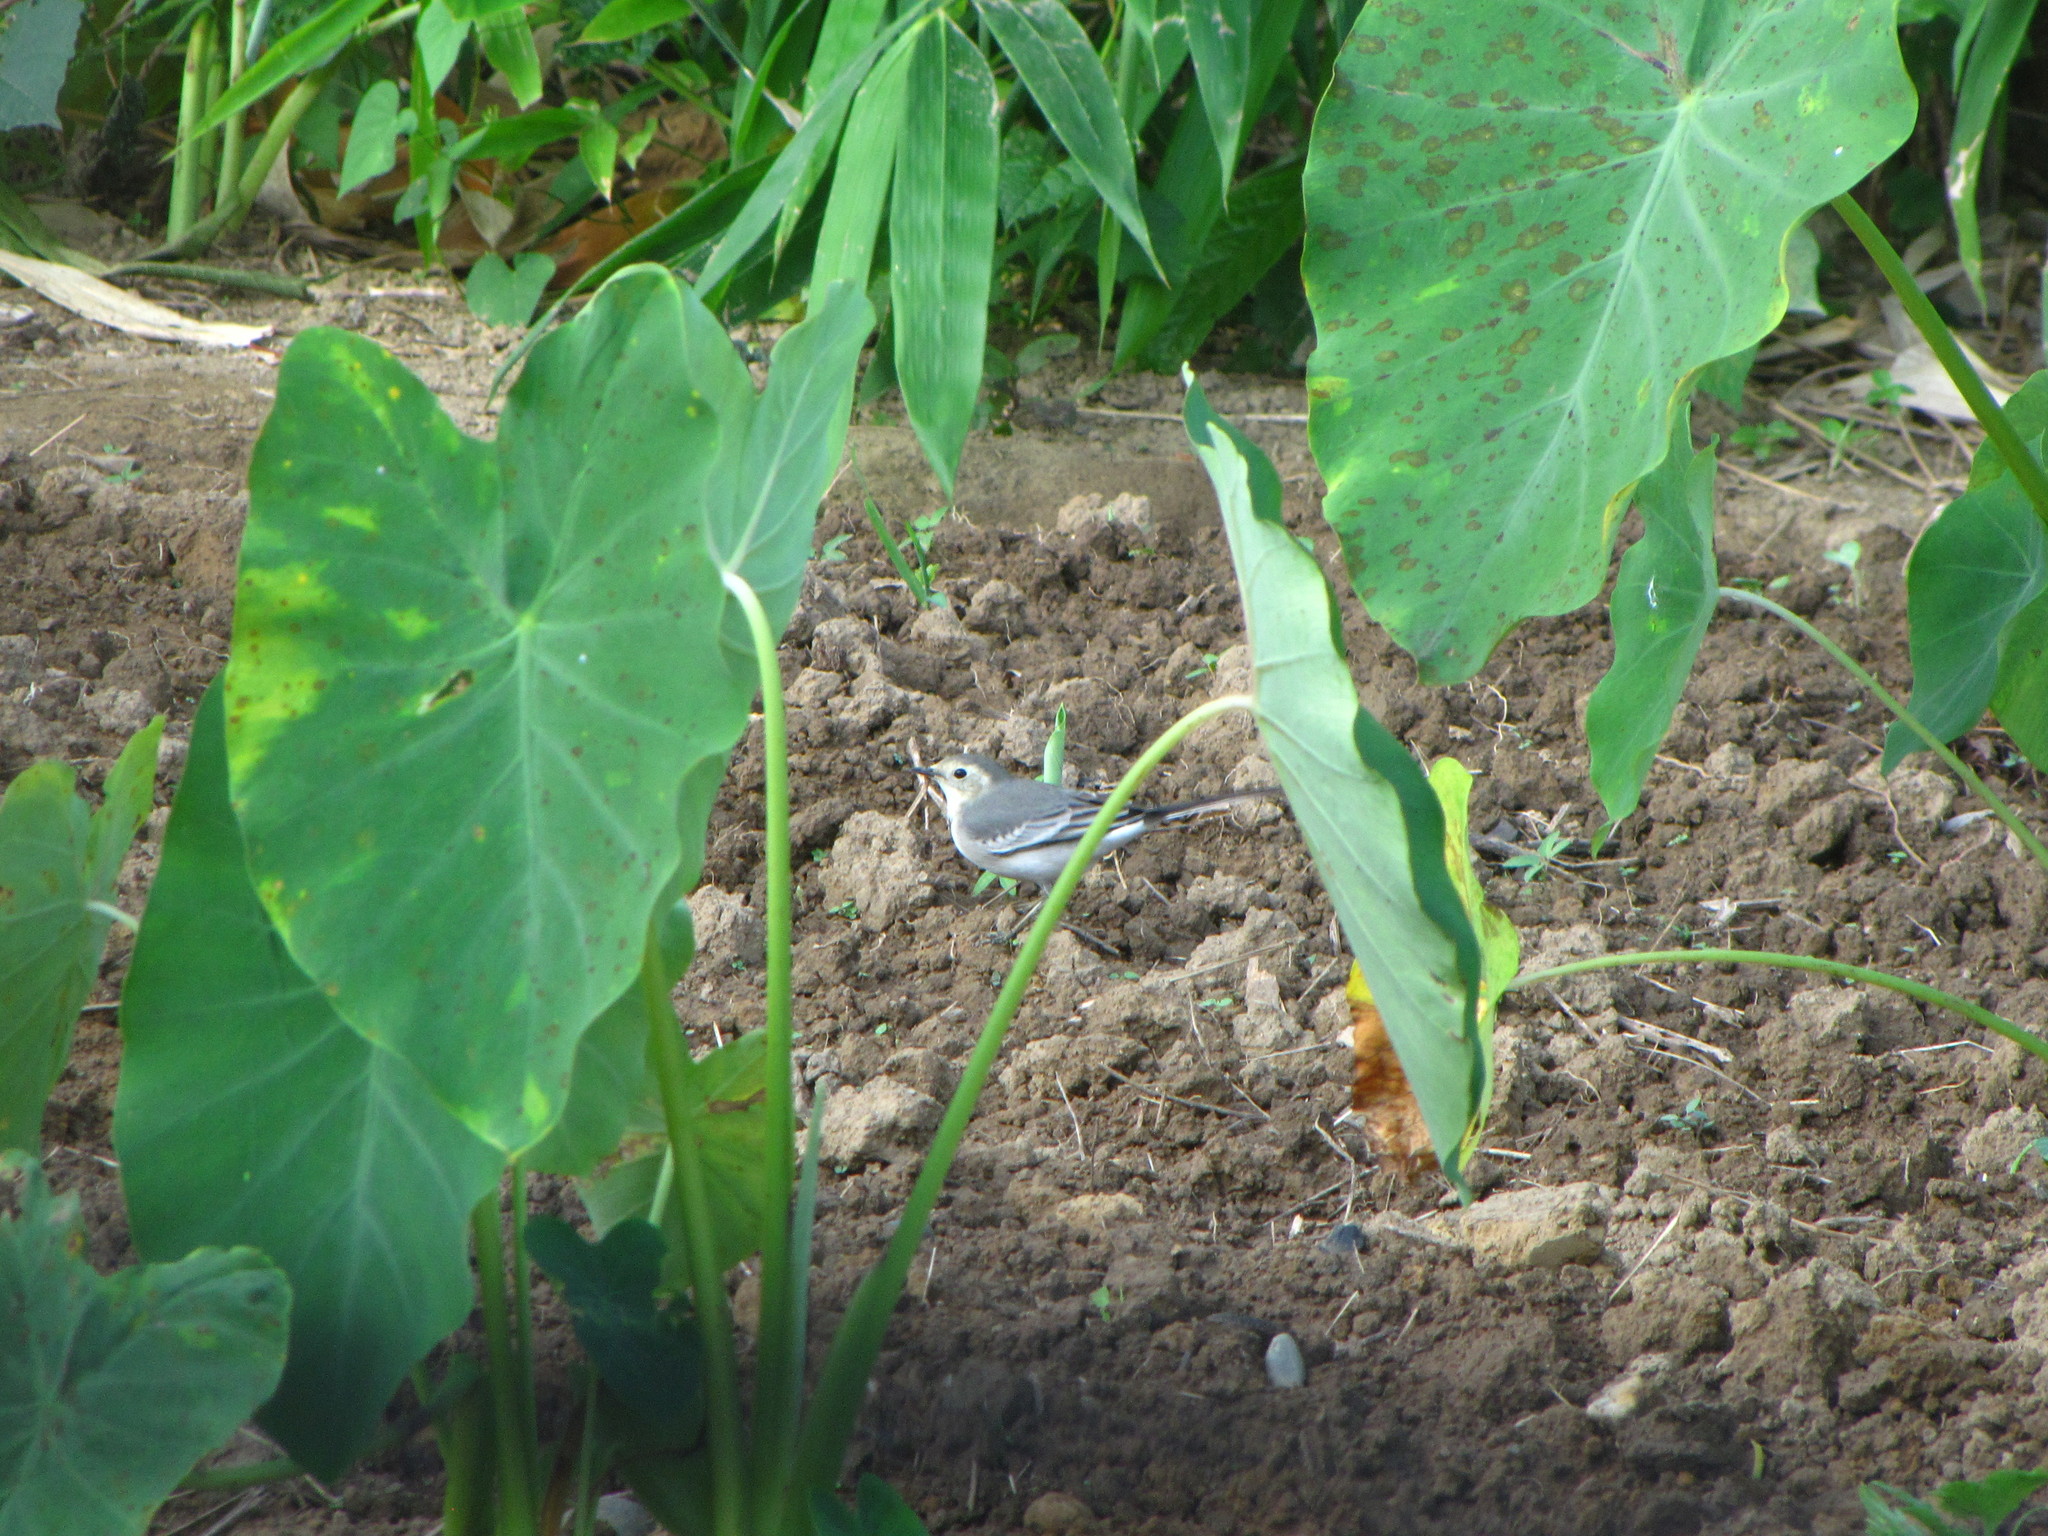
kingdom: Animalia
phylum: Chordata
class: Aves
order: Passeriformes
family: Motacillidae
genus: Motacilla
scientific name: Motacilla alba
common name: White wagtail
